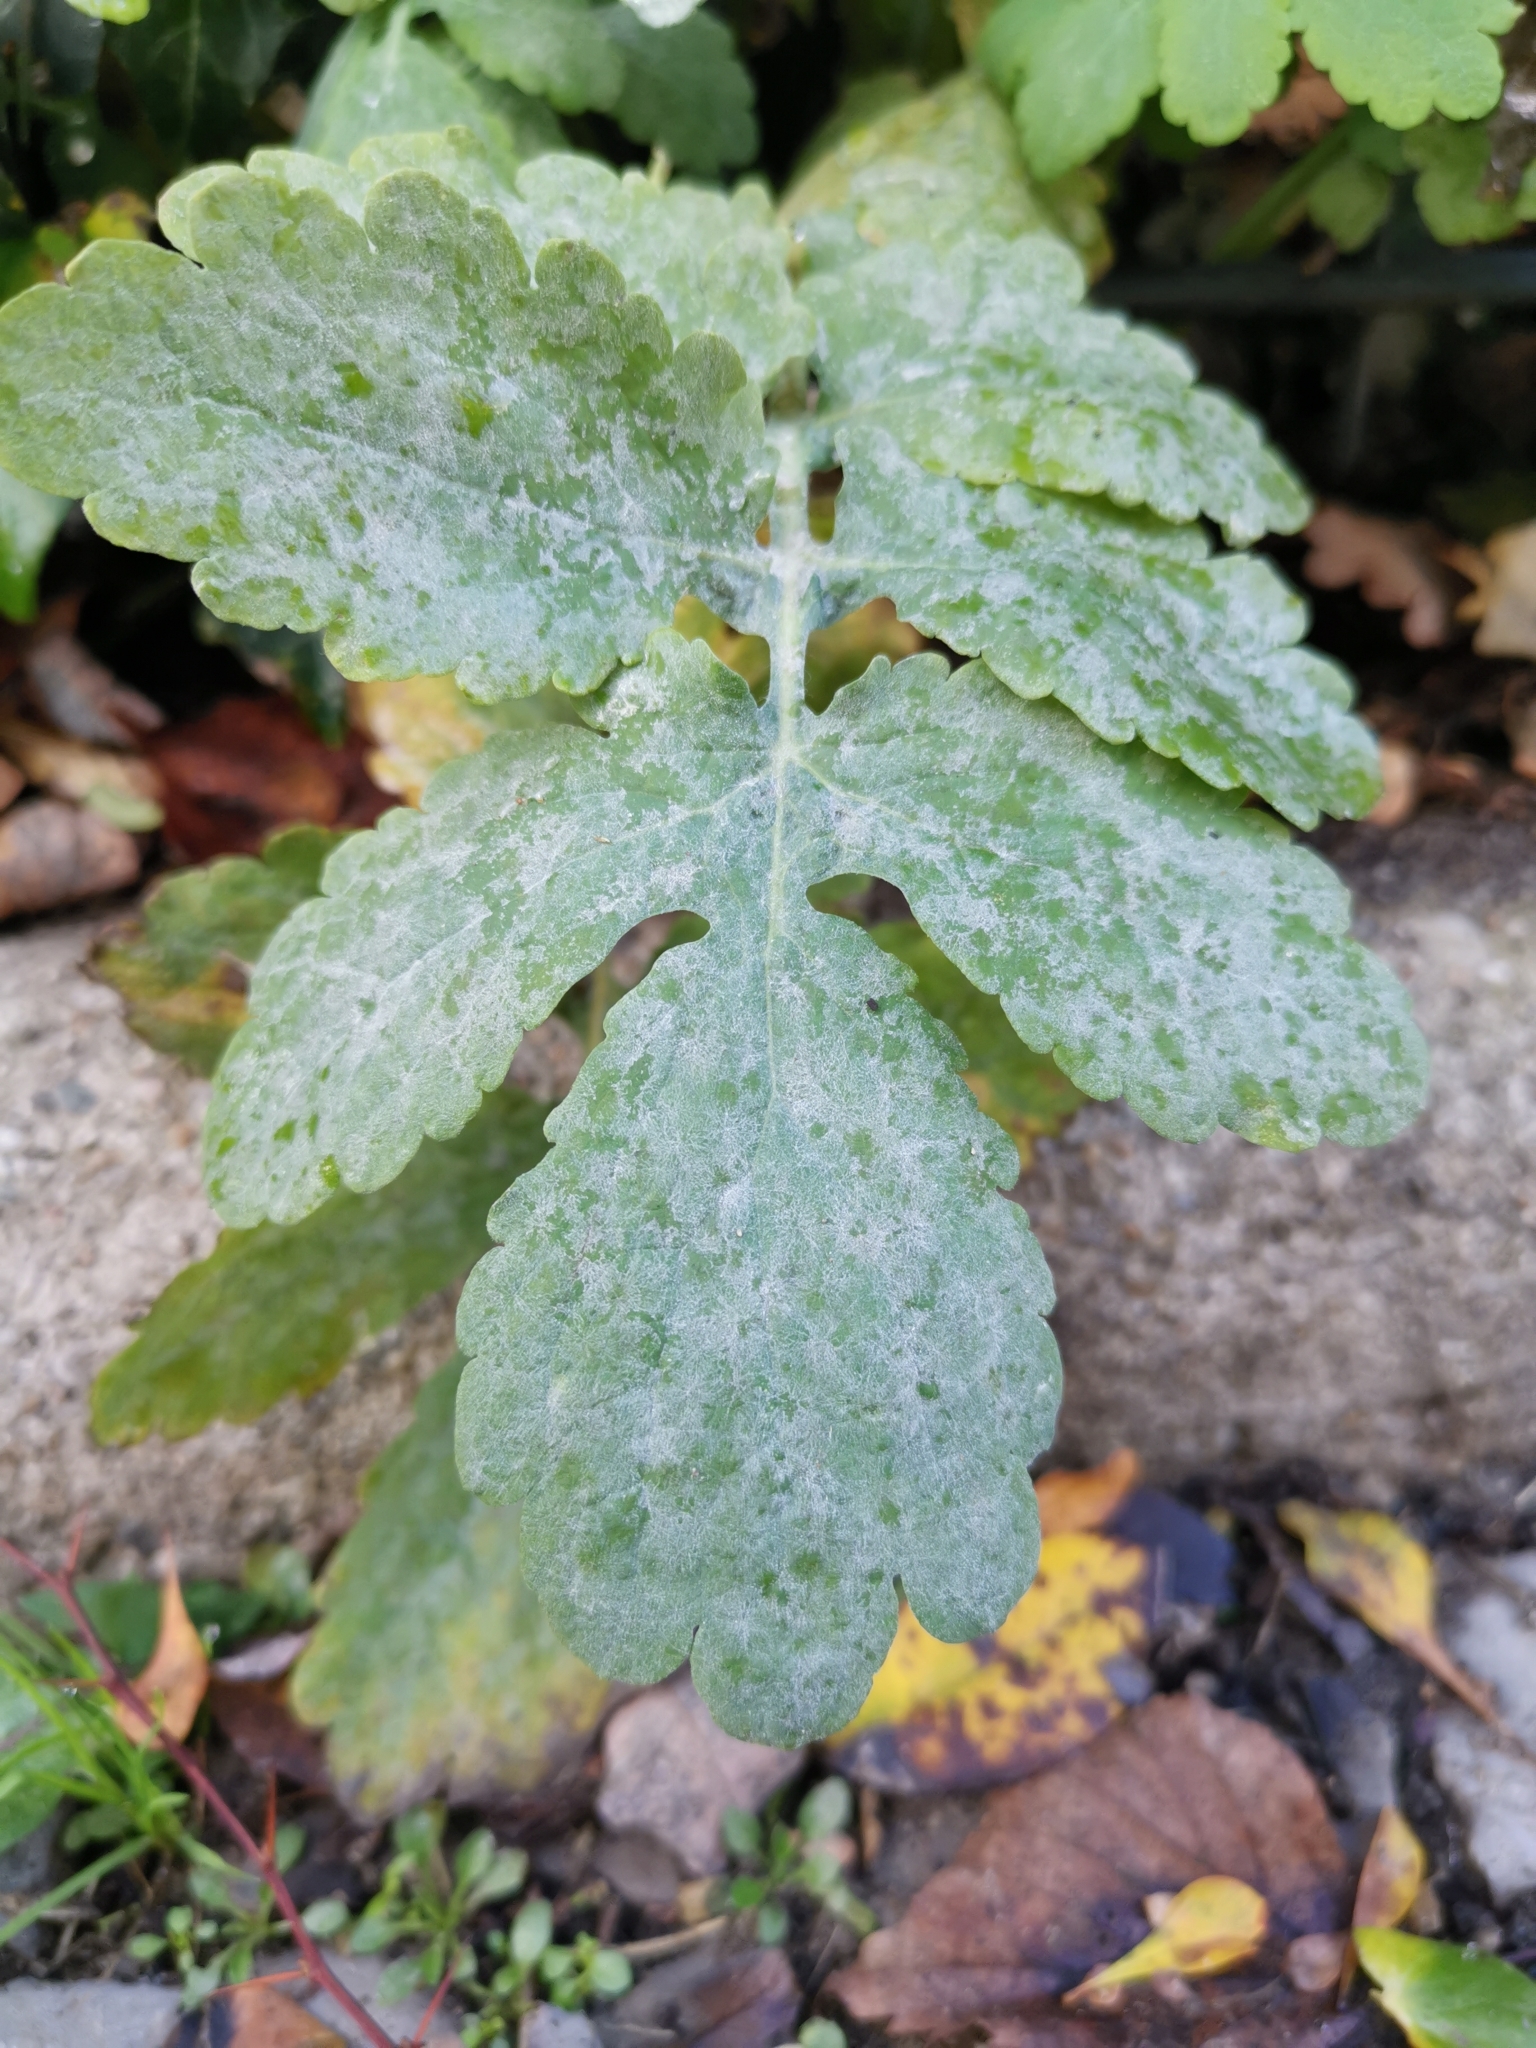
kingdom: Fungi
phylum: Ascomycota
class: Leotiomycetes
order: Helotiales
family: Erysiphaceae
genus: Erysiphe
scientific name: Erysiphe macleayae
